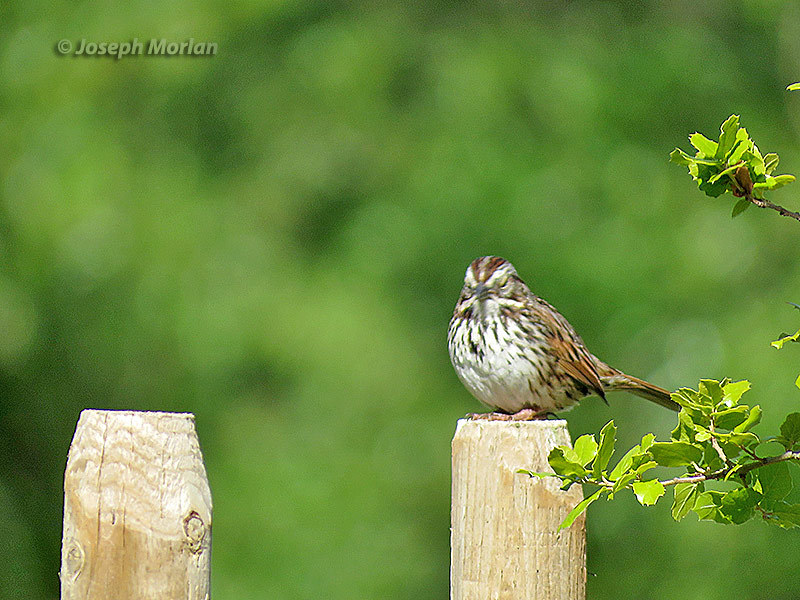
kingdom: Animalia
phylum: Chordata
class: Aves
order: Passeriformes
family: Passerellidae
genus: Melospiza
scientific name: Melospiza melodia
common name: Song sparrow
